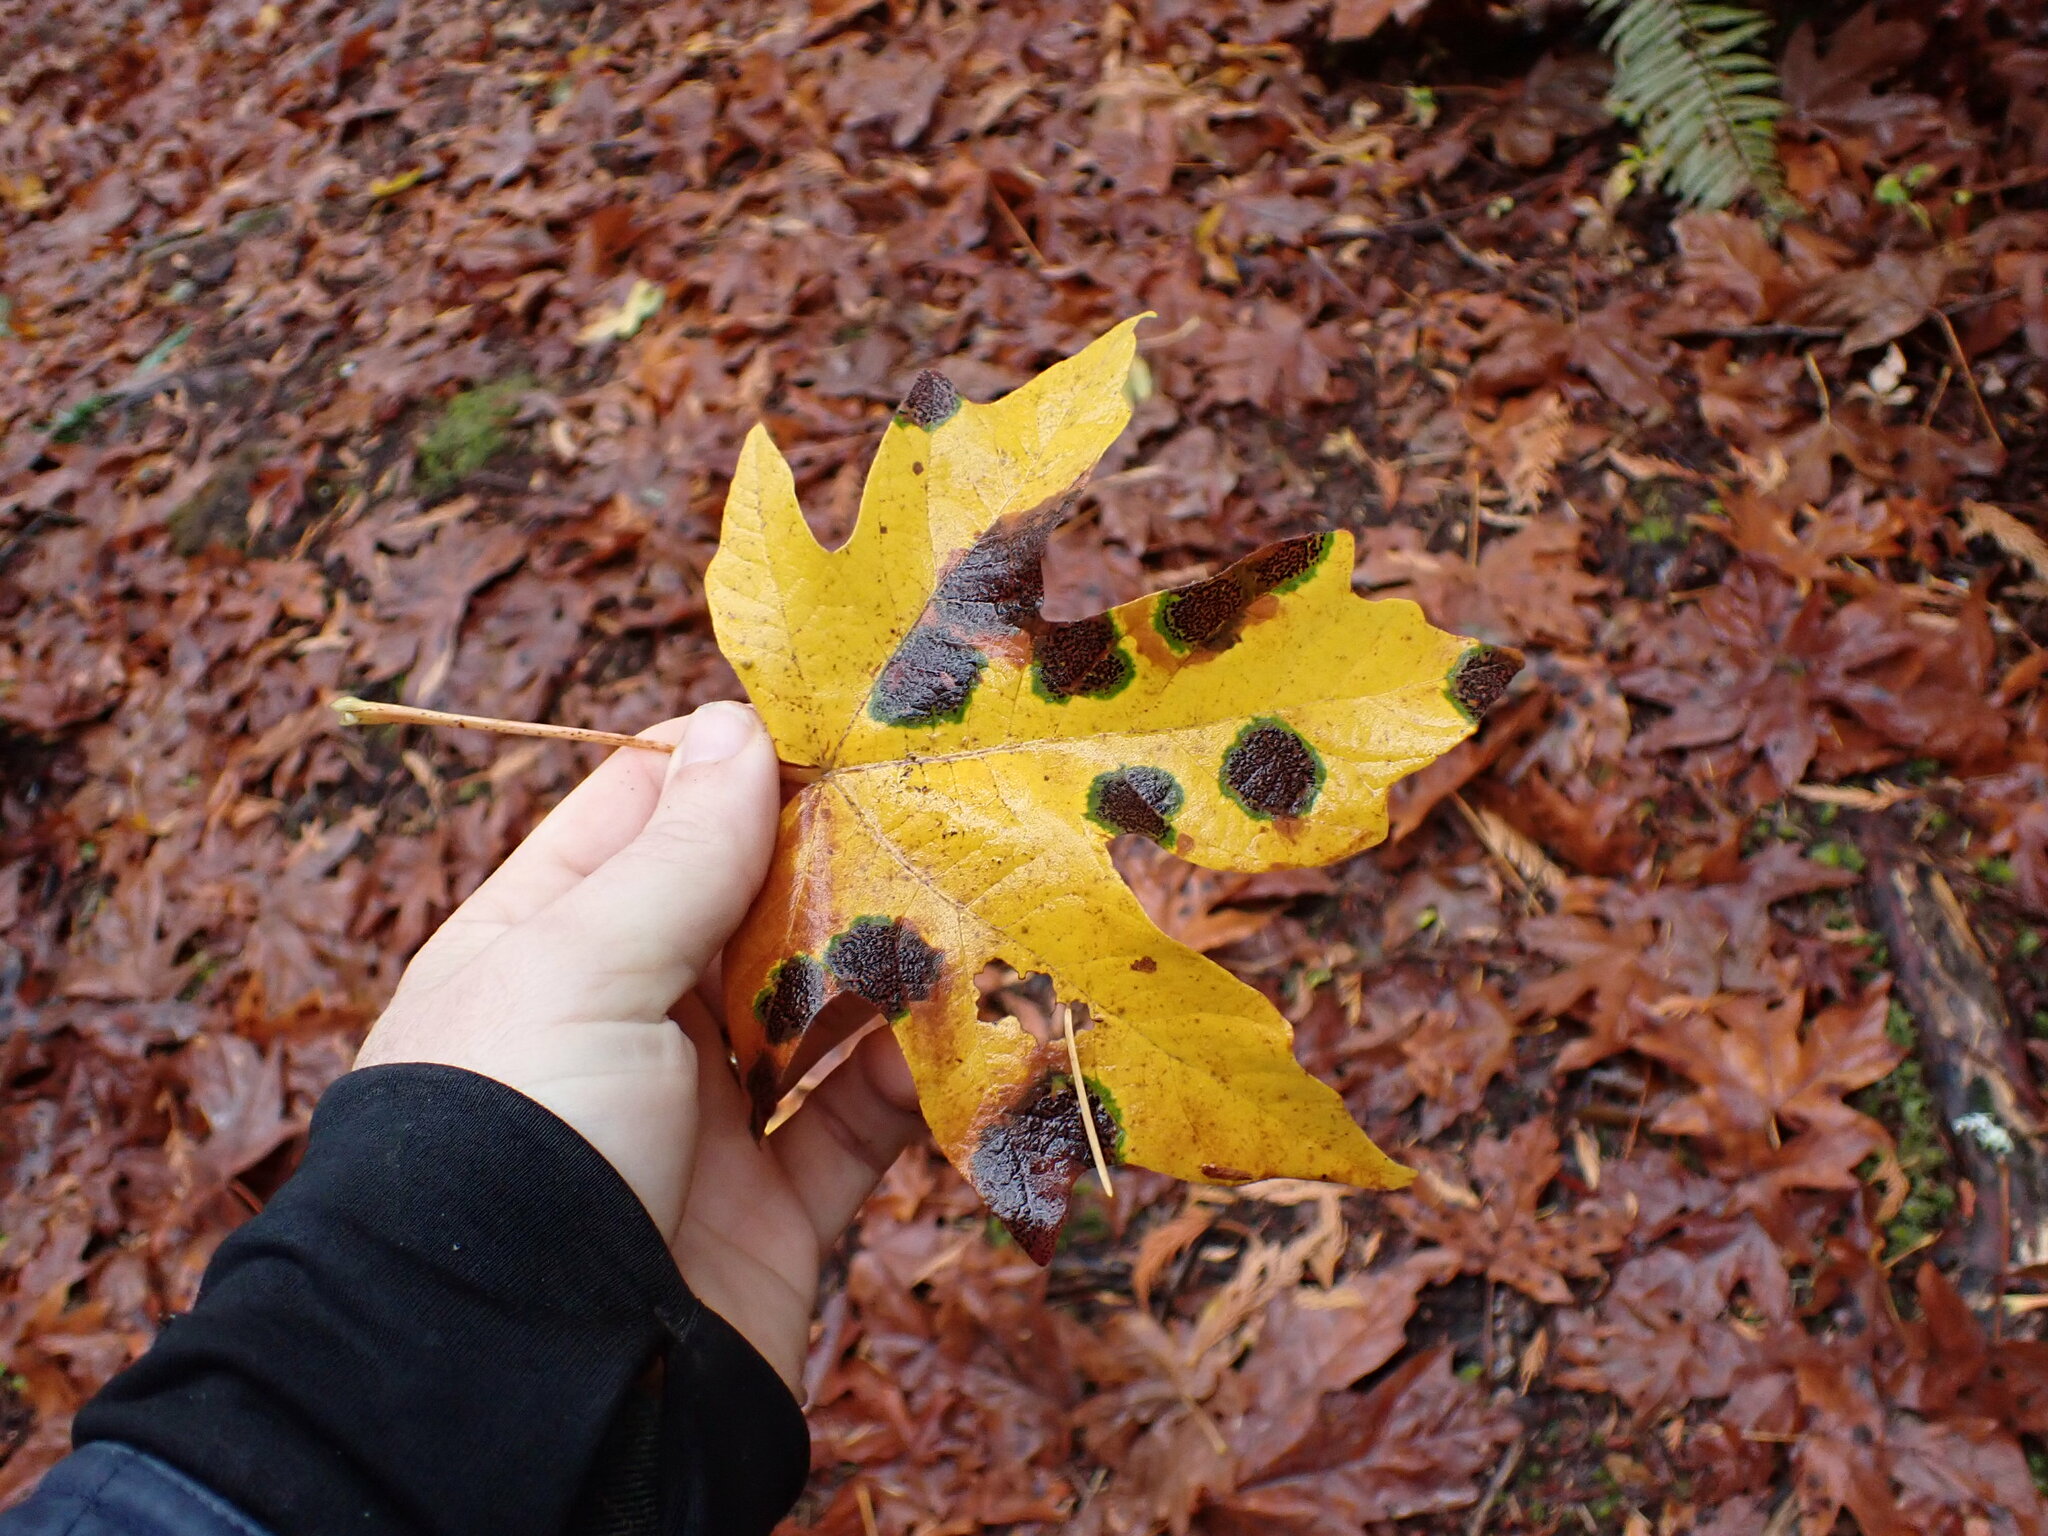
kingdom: Fungi
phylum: Ascomycota
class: Leotiomycetes
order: Rhytismatales
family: Rhytismataceae
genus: Rhytisma
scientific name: Rhytisma punctatum
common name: Speckled tar spot
